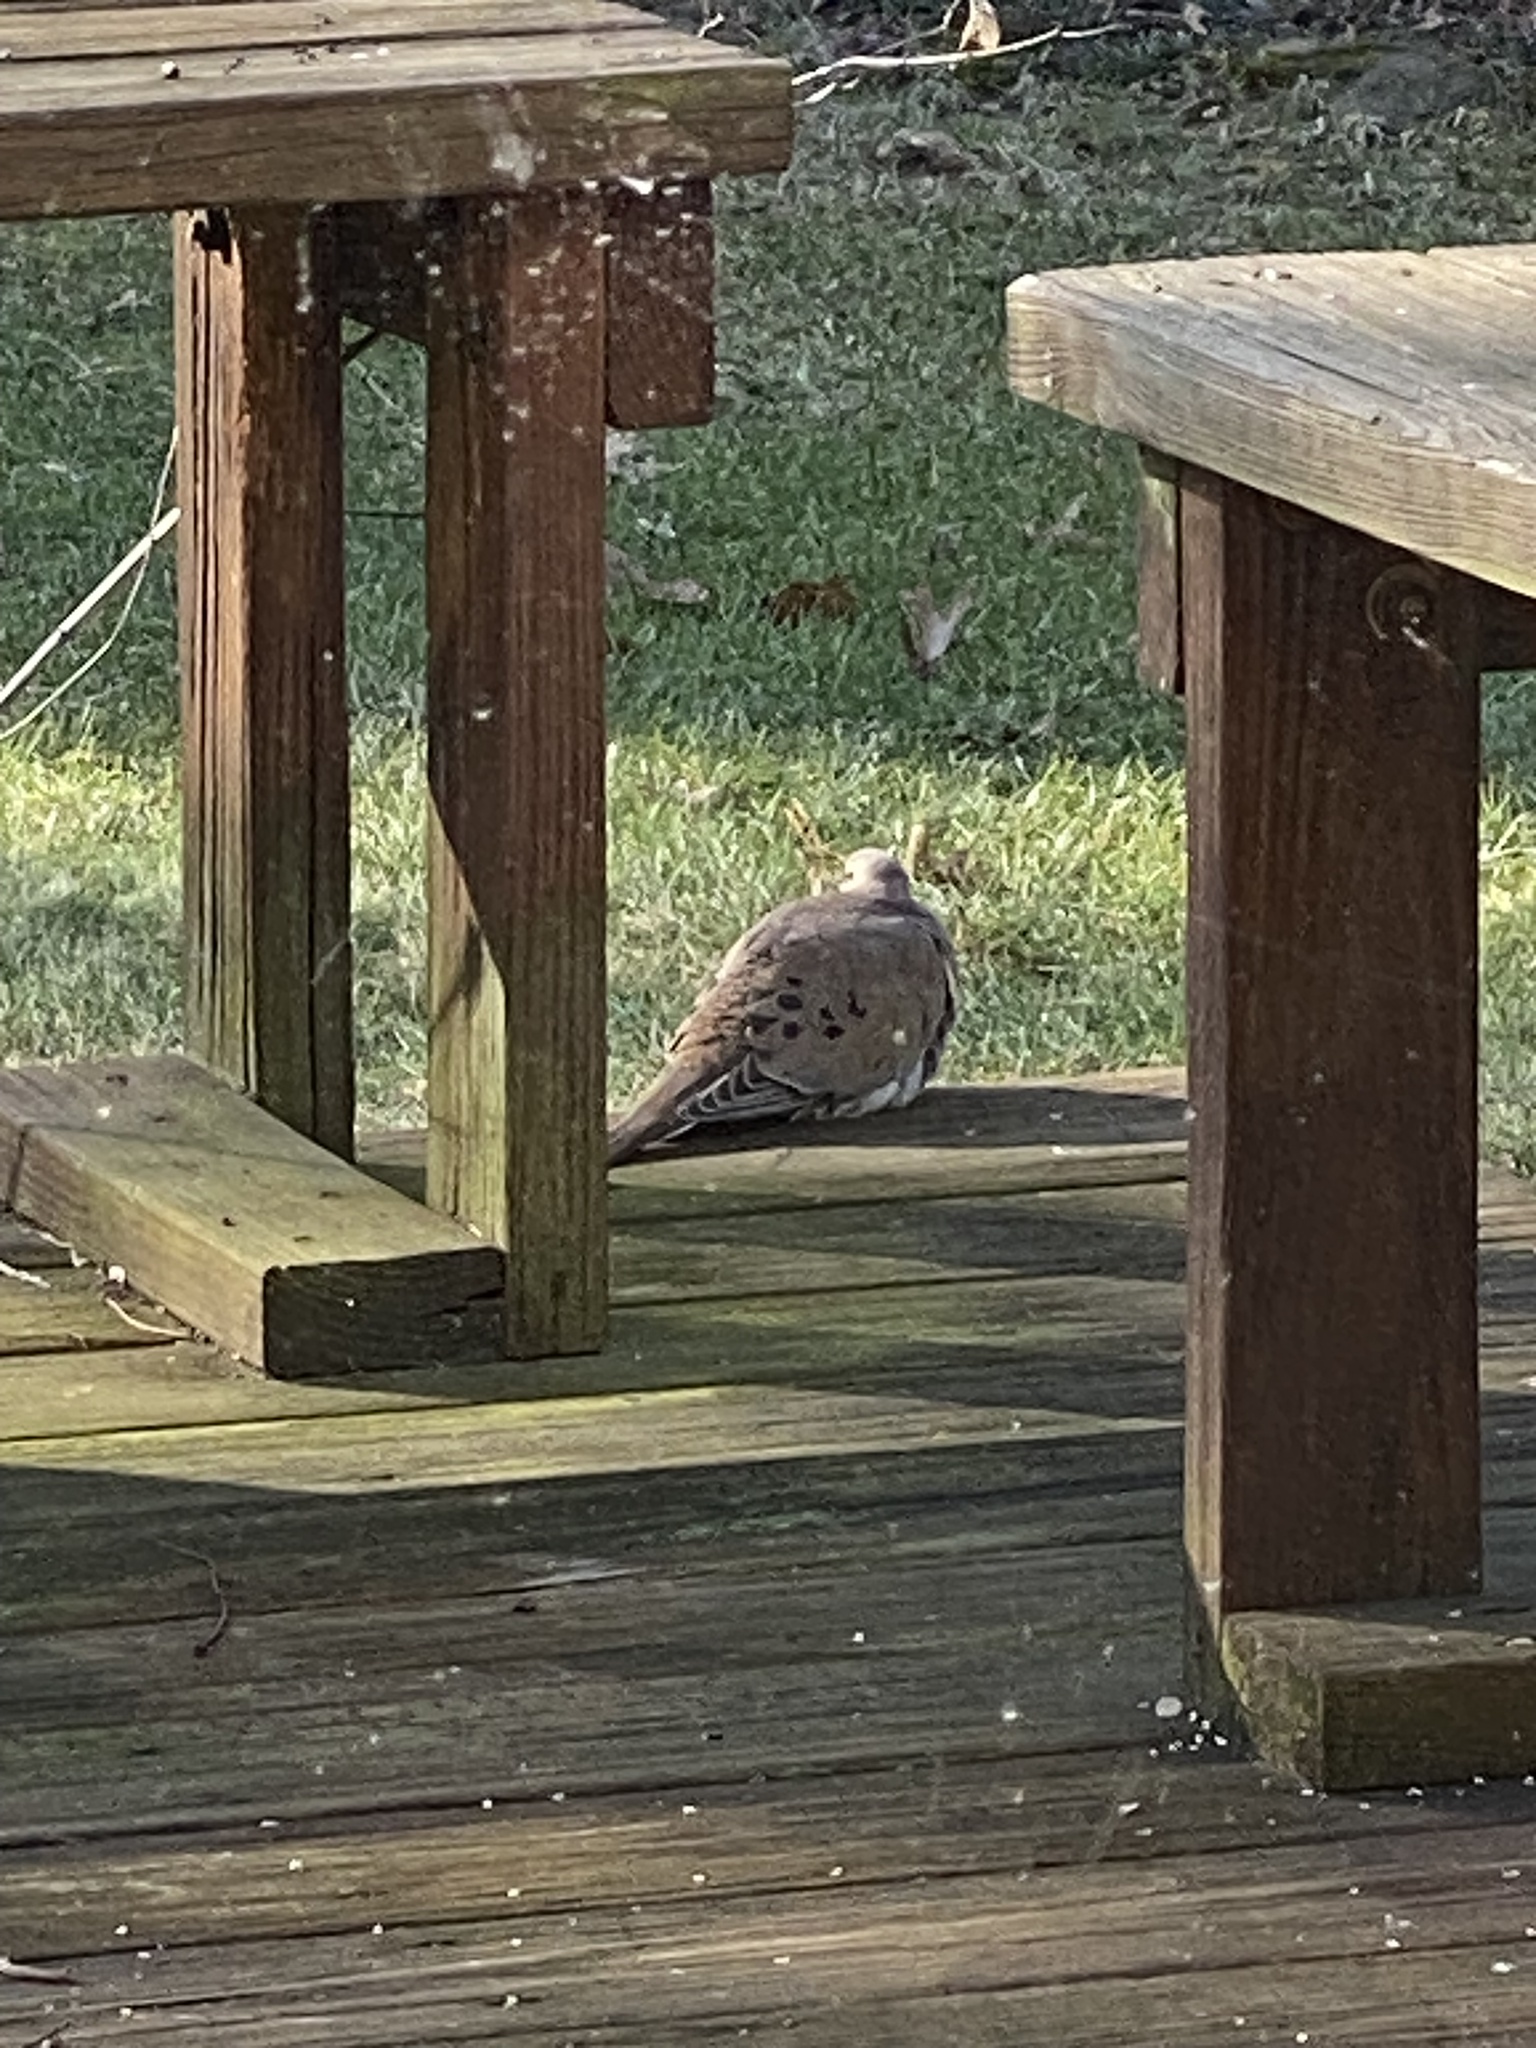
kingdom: Animalia
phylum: Chordata
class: Aves
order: Columbiformes
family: Columbidae
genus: Zenaida
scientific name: Zenaida macroura
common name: Mourning dove
